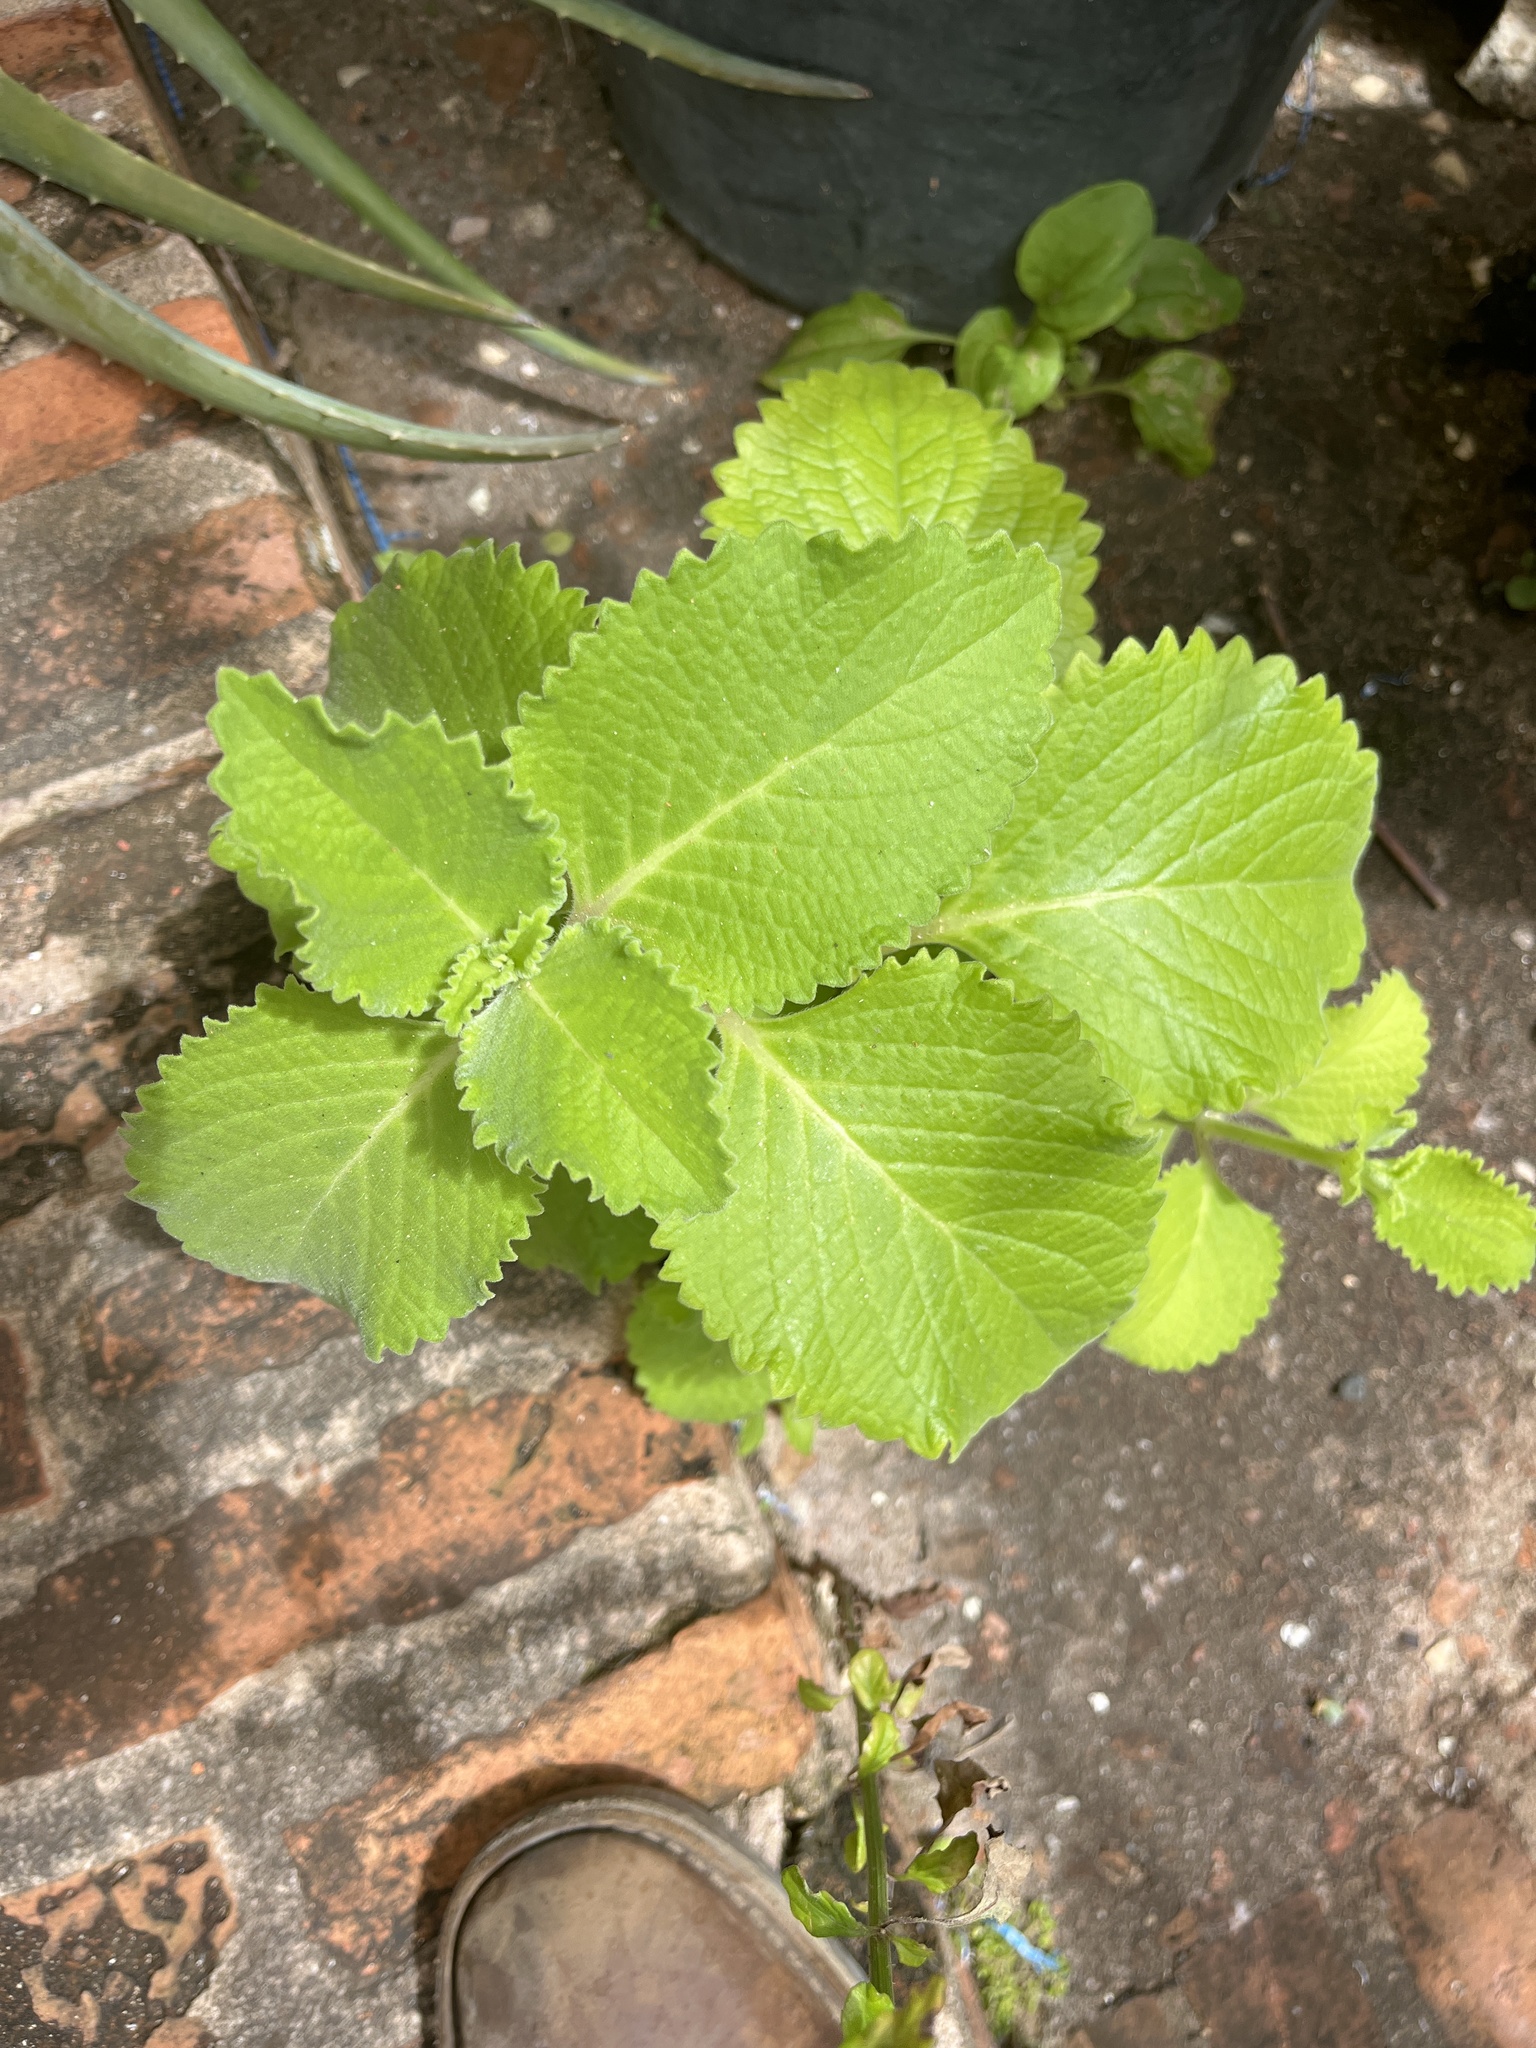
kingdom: Plantae
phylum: Tracheophyta
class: Magnoliopsida
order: Lamiales
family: Lamiaceae
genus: Coleus
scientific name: Coleus amboinicus
